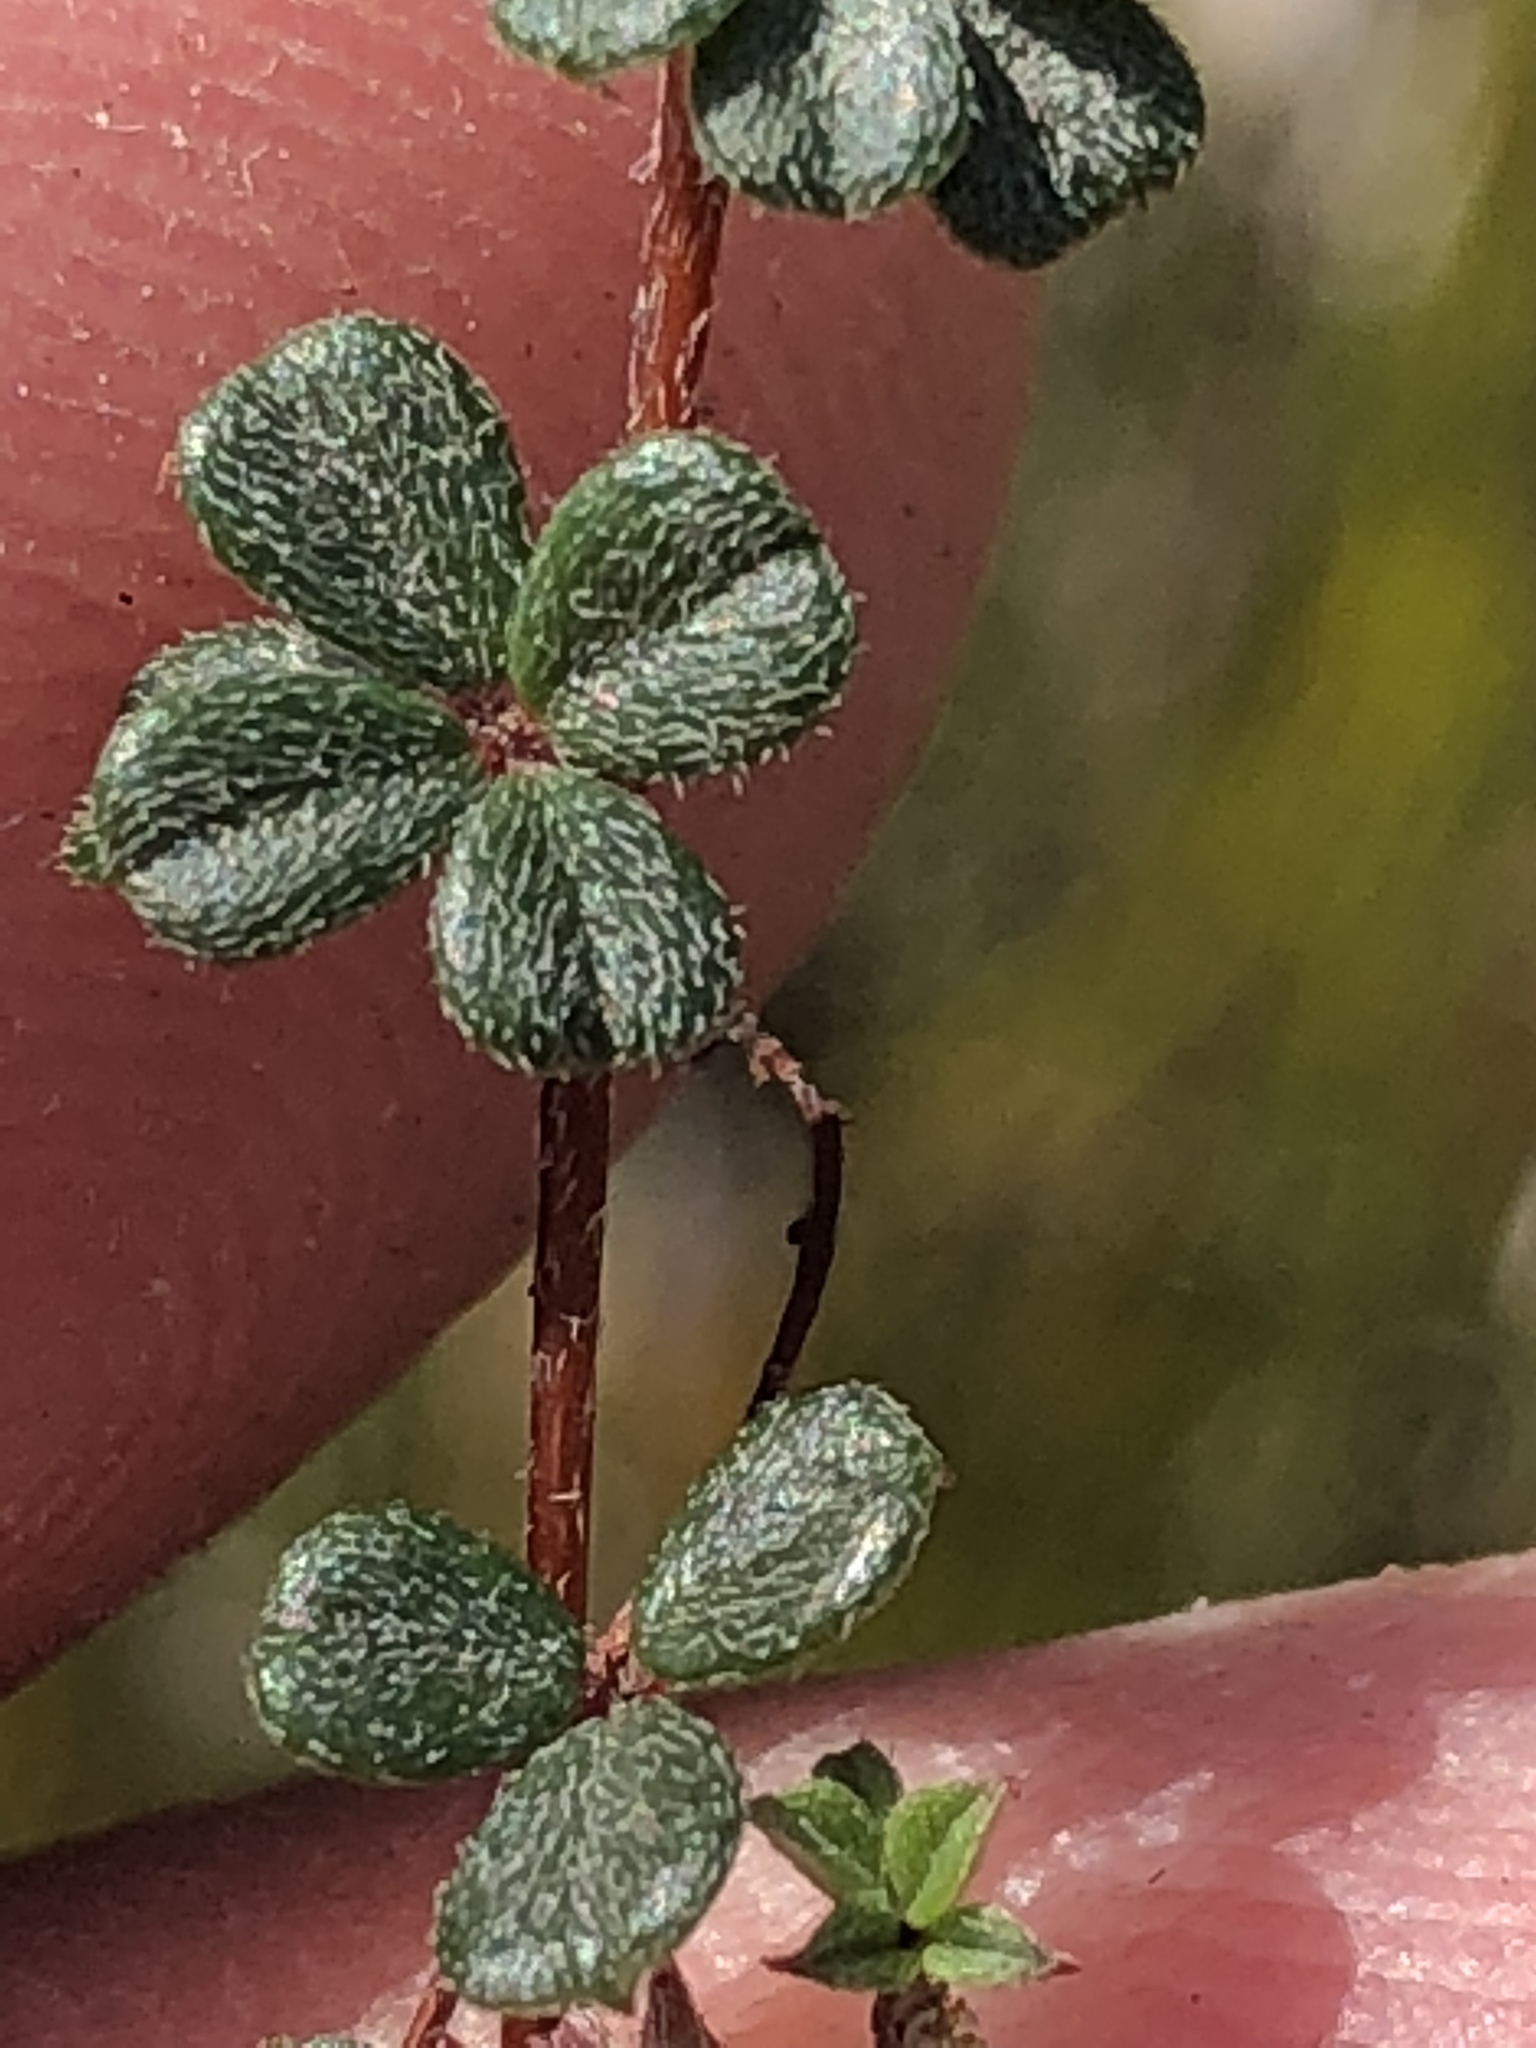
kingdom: Plantae
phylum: Tracheophyta
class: Magnoliopsida
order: Fabales
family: Fabaceae
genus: Indigofera
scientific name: Indigofera
